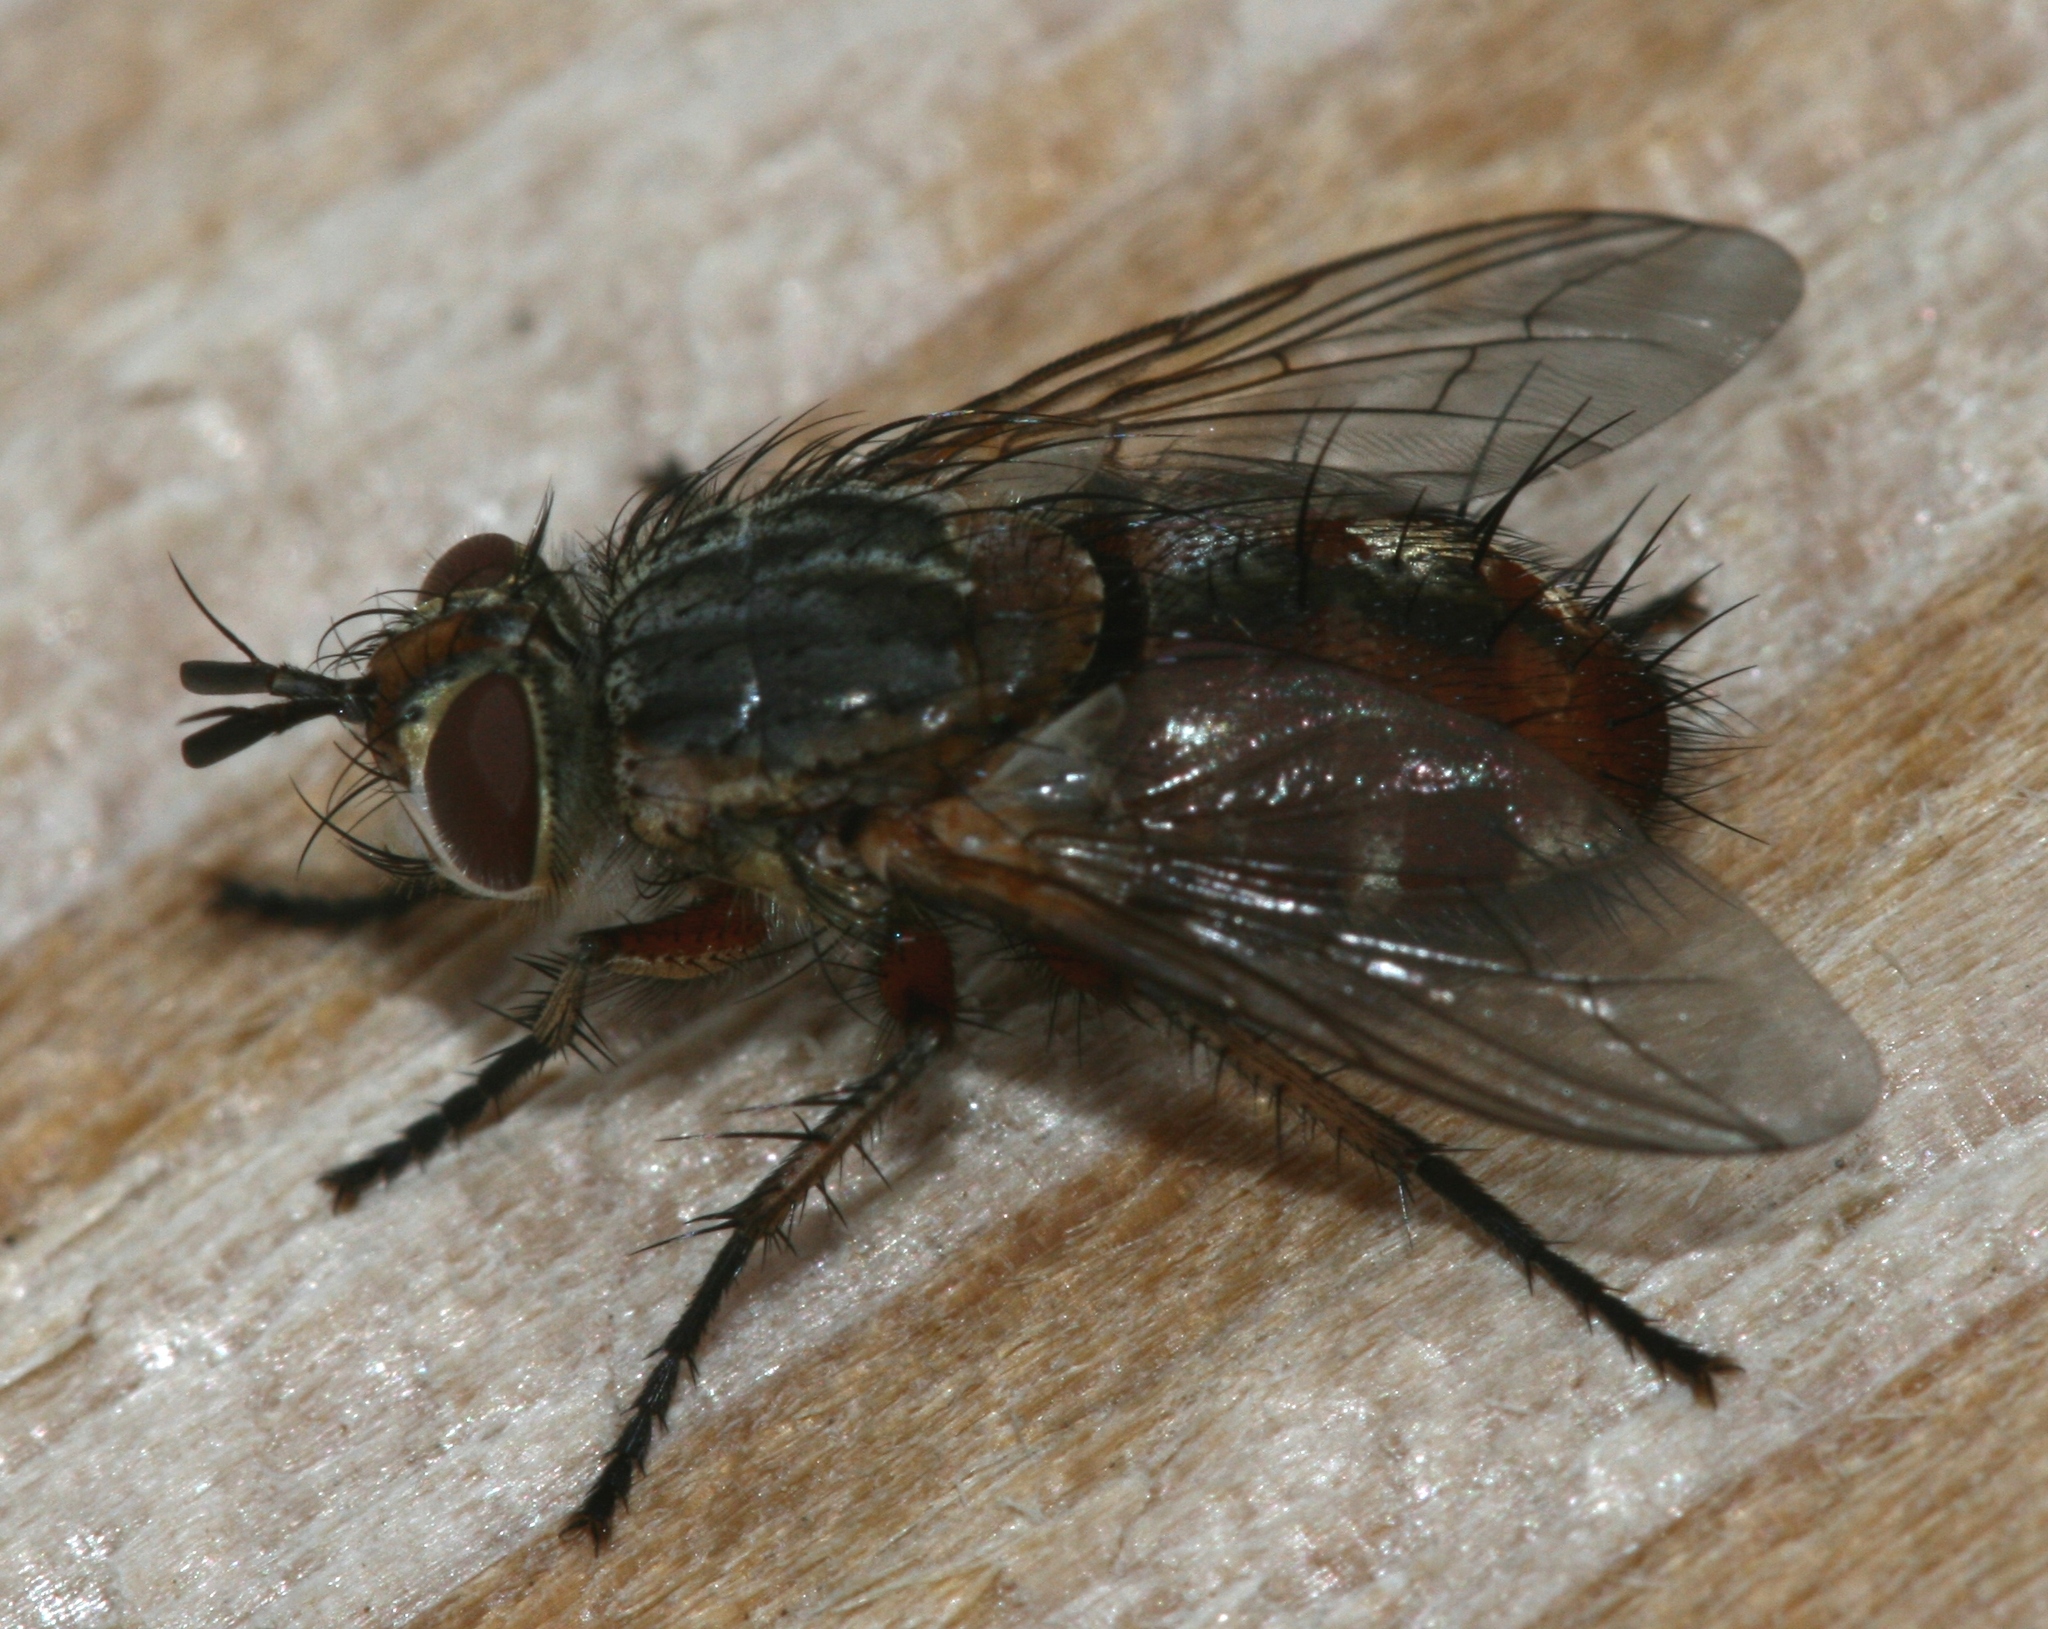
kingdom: Animalia
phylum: Arthropoda
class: Insecta
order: Diptera
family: Tachinidae
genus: Linnaemya
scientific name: Linnaemya vulpina
